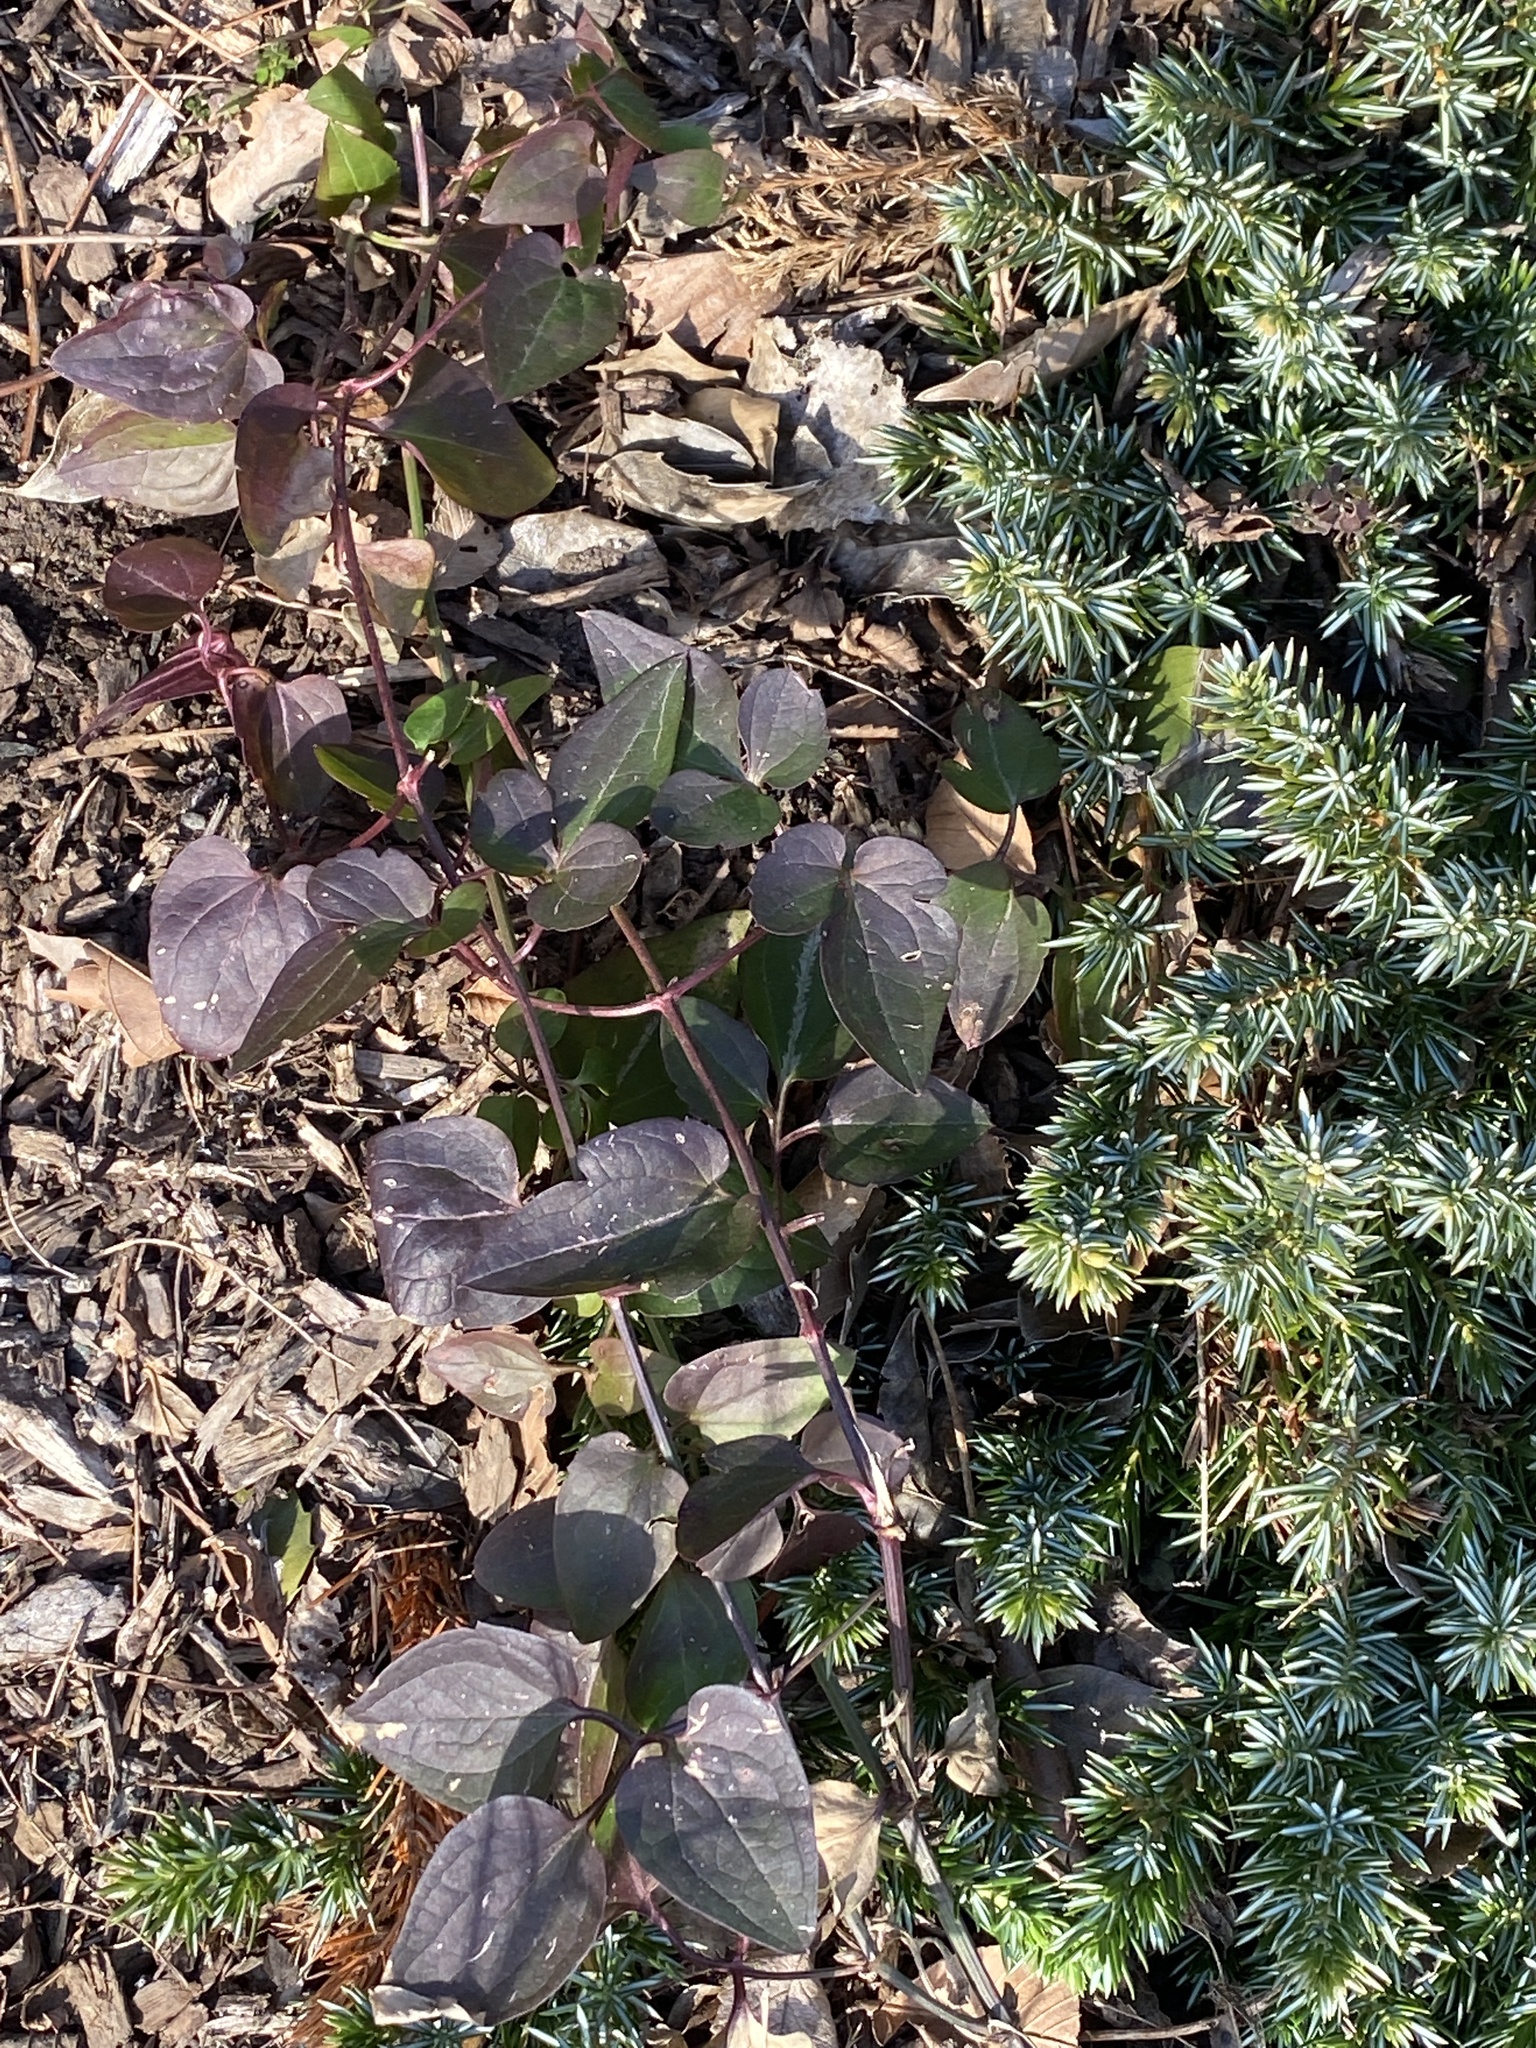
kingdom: Plantae
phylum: Tracheophyta
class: Magnoliopsida
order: Ranunculales
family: Ranunculaceae
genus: Clematis
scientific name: Clematis terniflora
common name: Sweet autumn clematis
